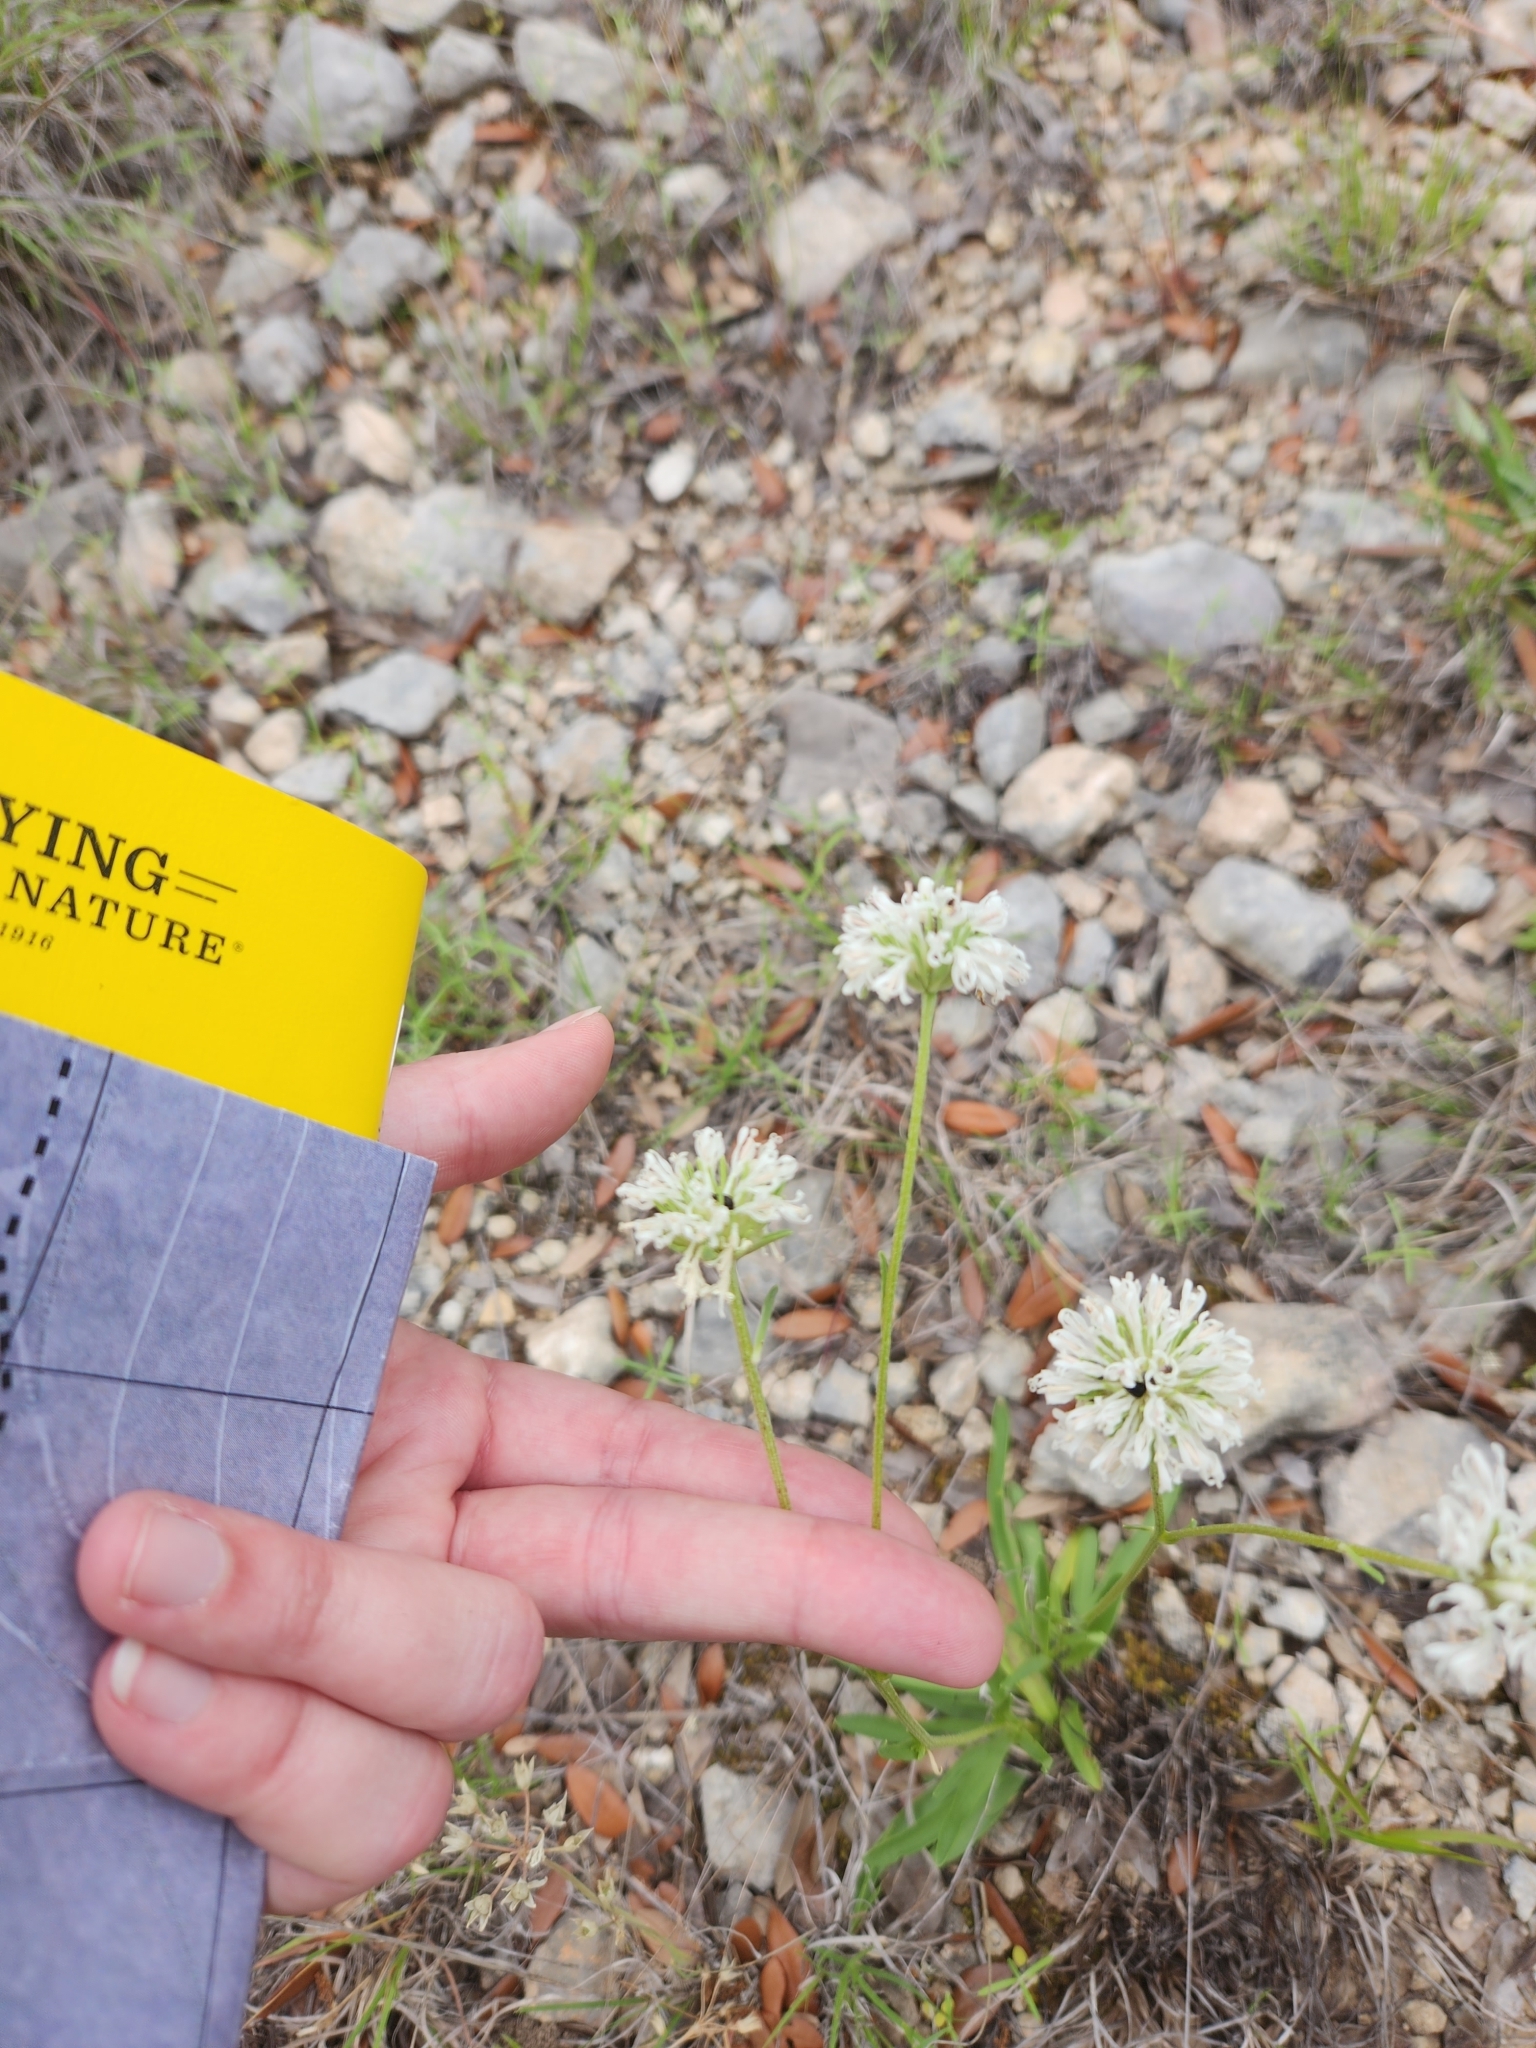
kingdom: Plantae
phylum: Tracheophyta
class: Magnoliopsida
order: Asterales
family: Asteraceae
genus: Marshallia
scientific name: Marshallia caespitosa
